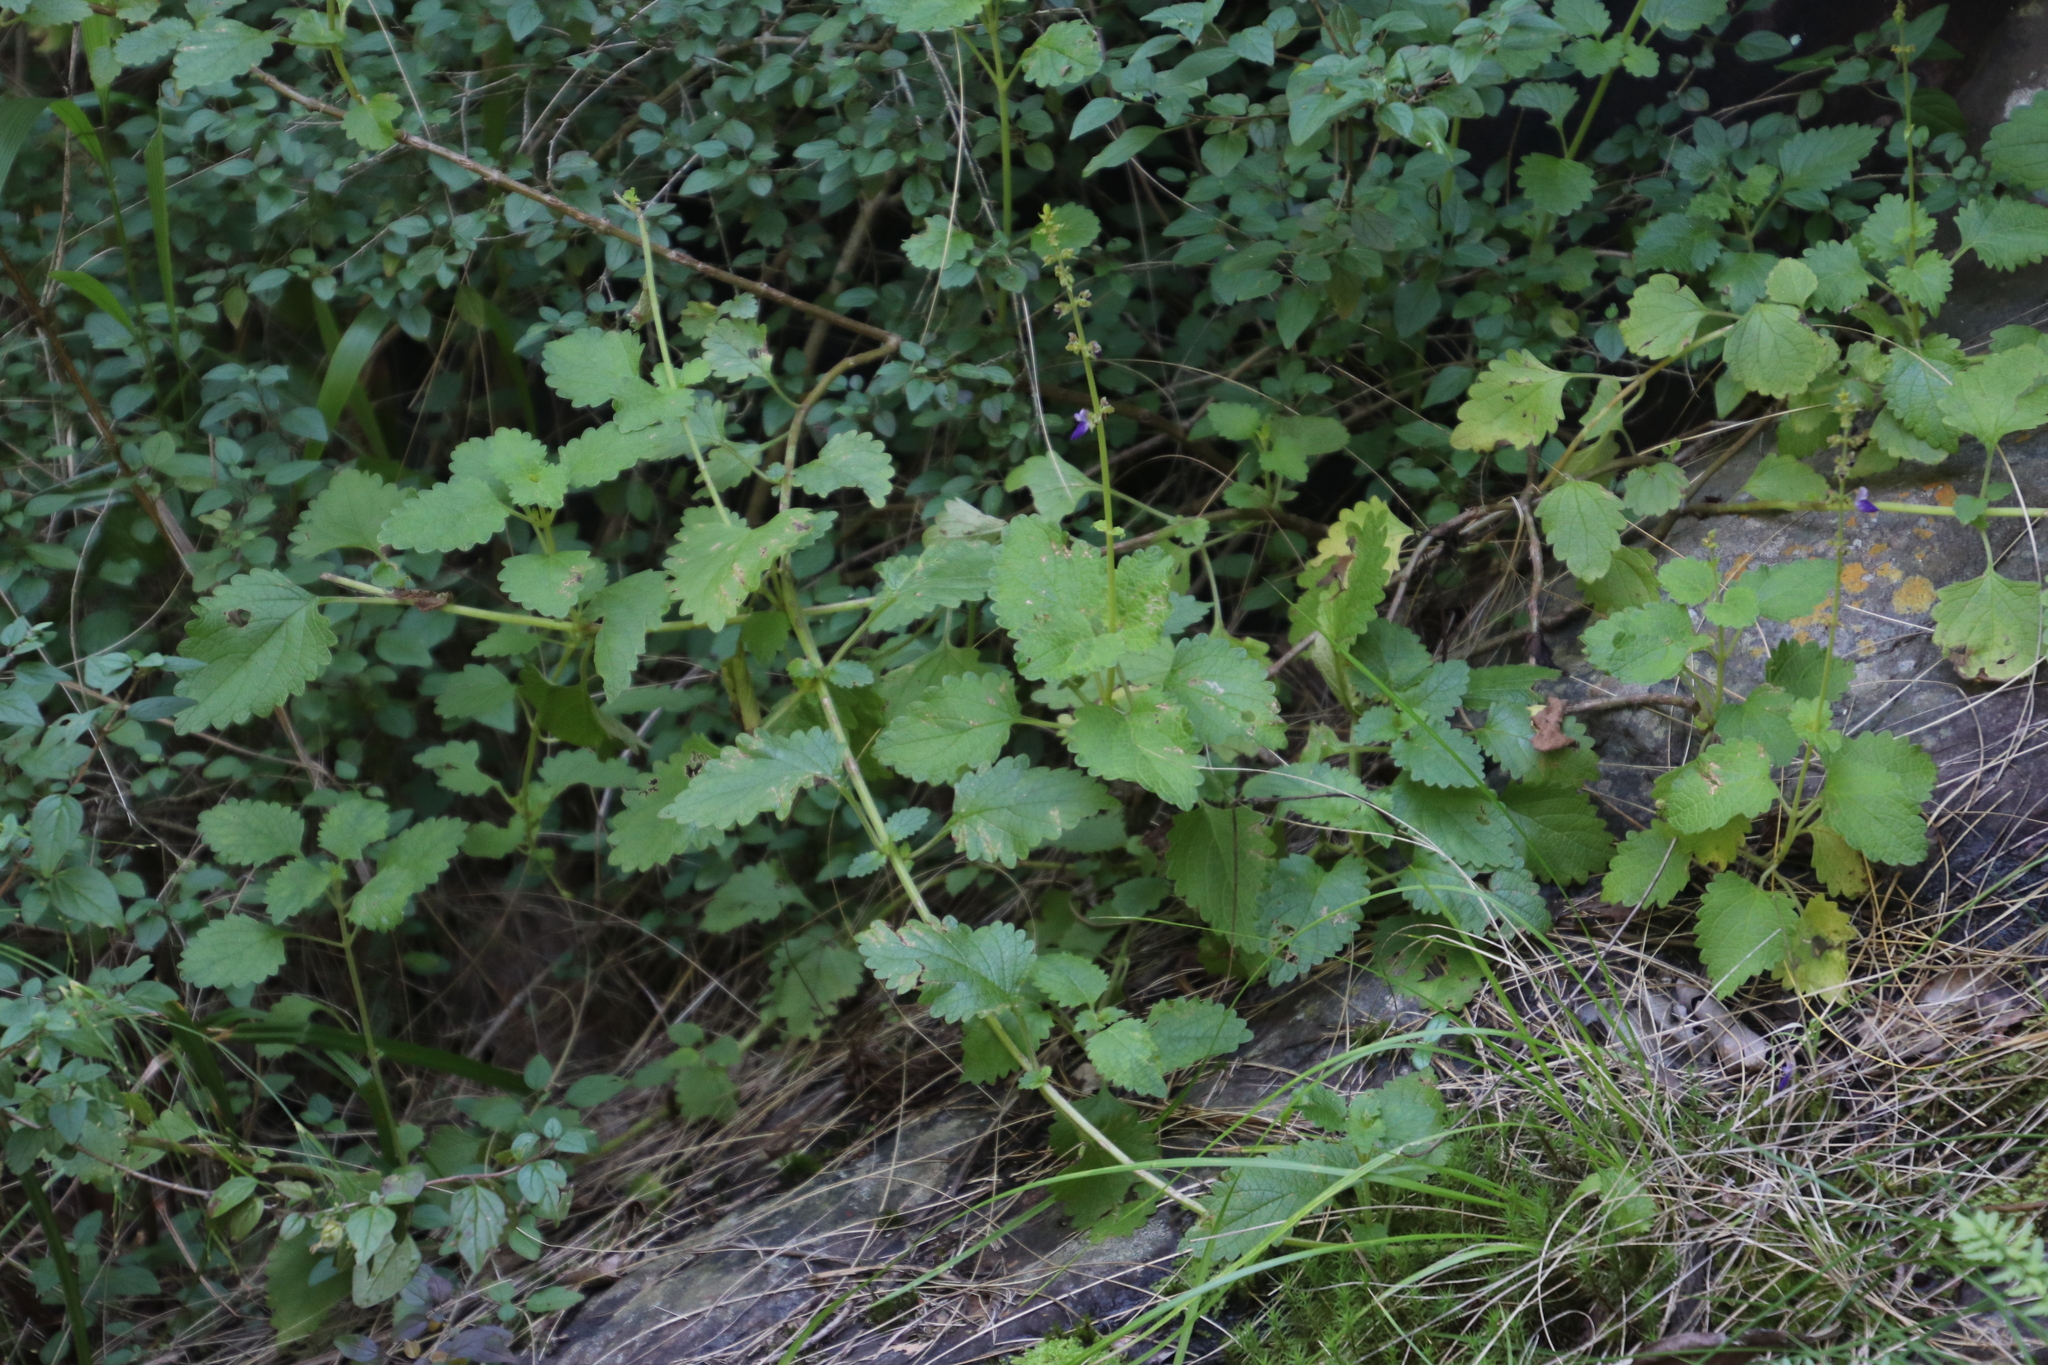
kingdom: Plantae
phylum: Tracheophyta
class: Magnoliopsida
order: Lamiales
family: Lamiaceae
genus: Coleus
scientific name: Coleus bojeri
